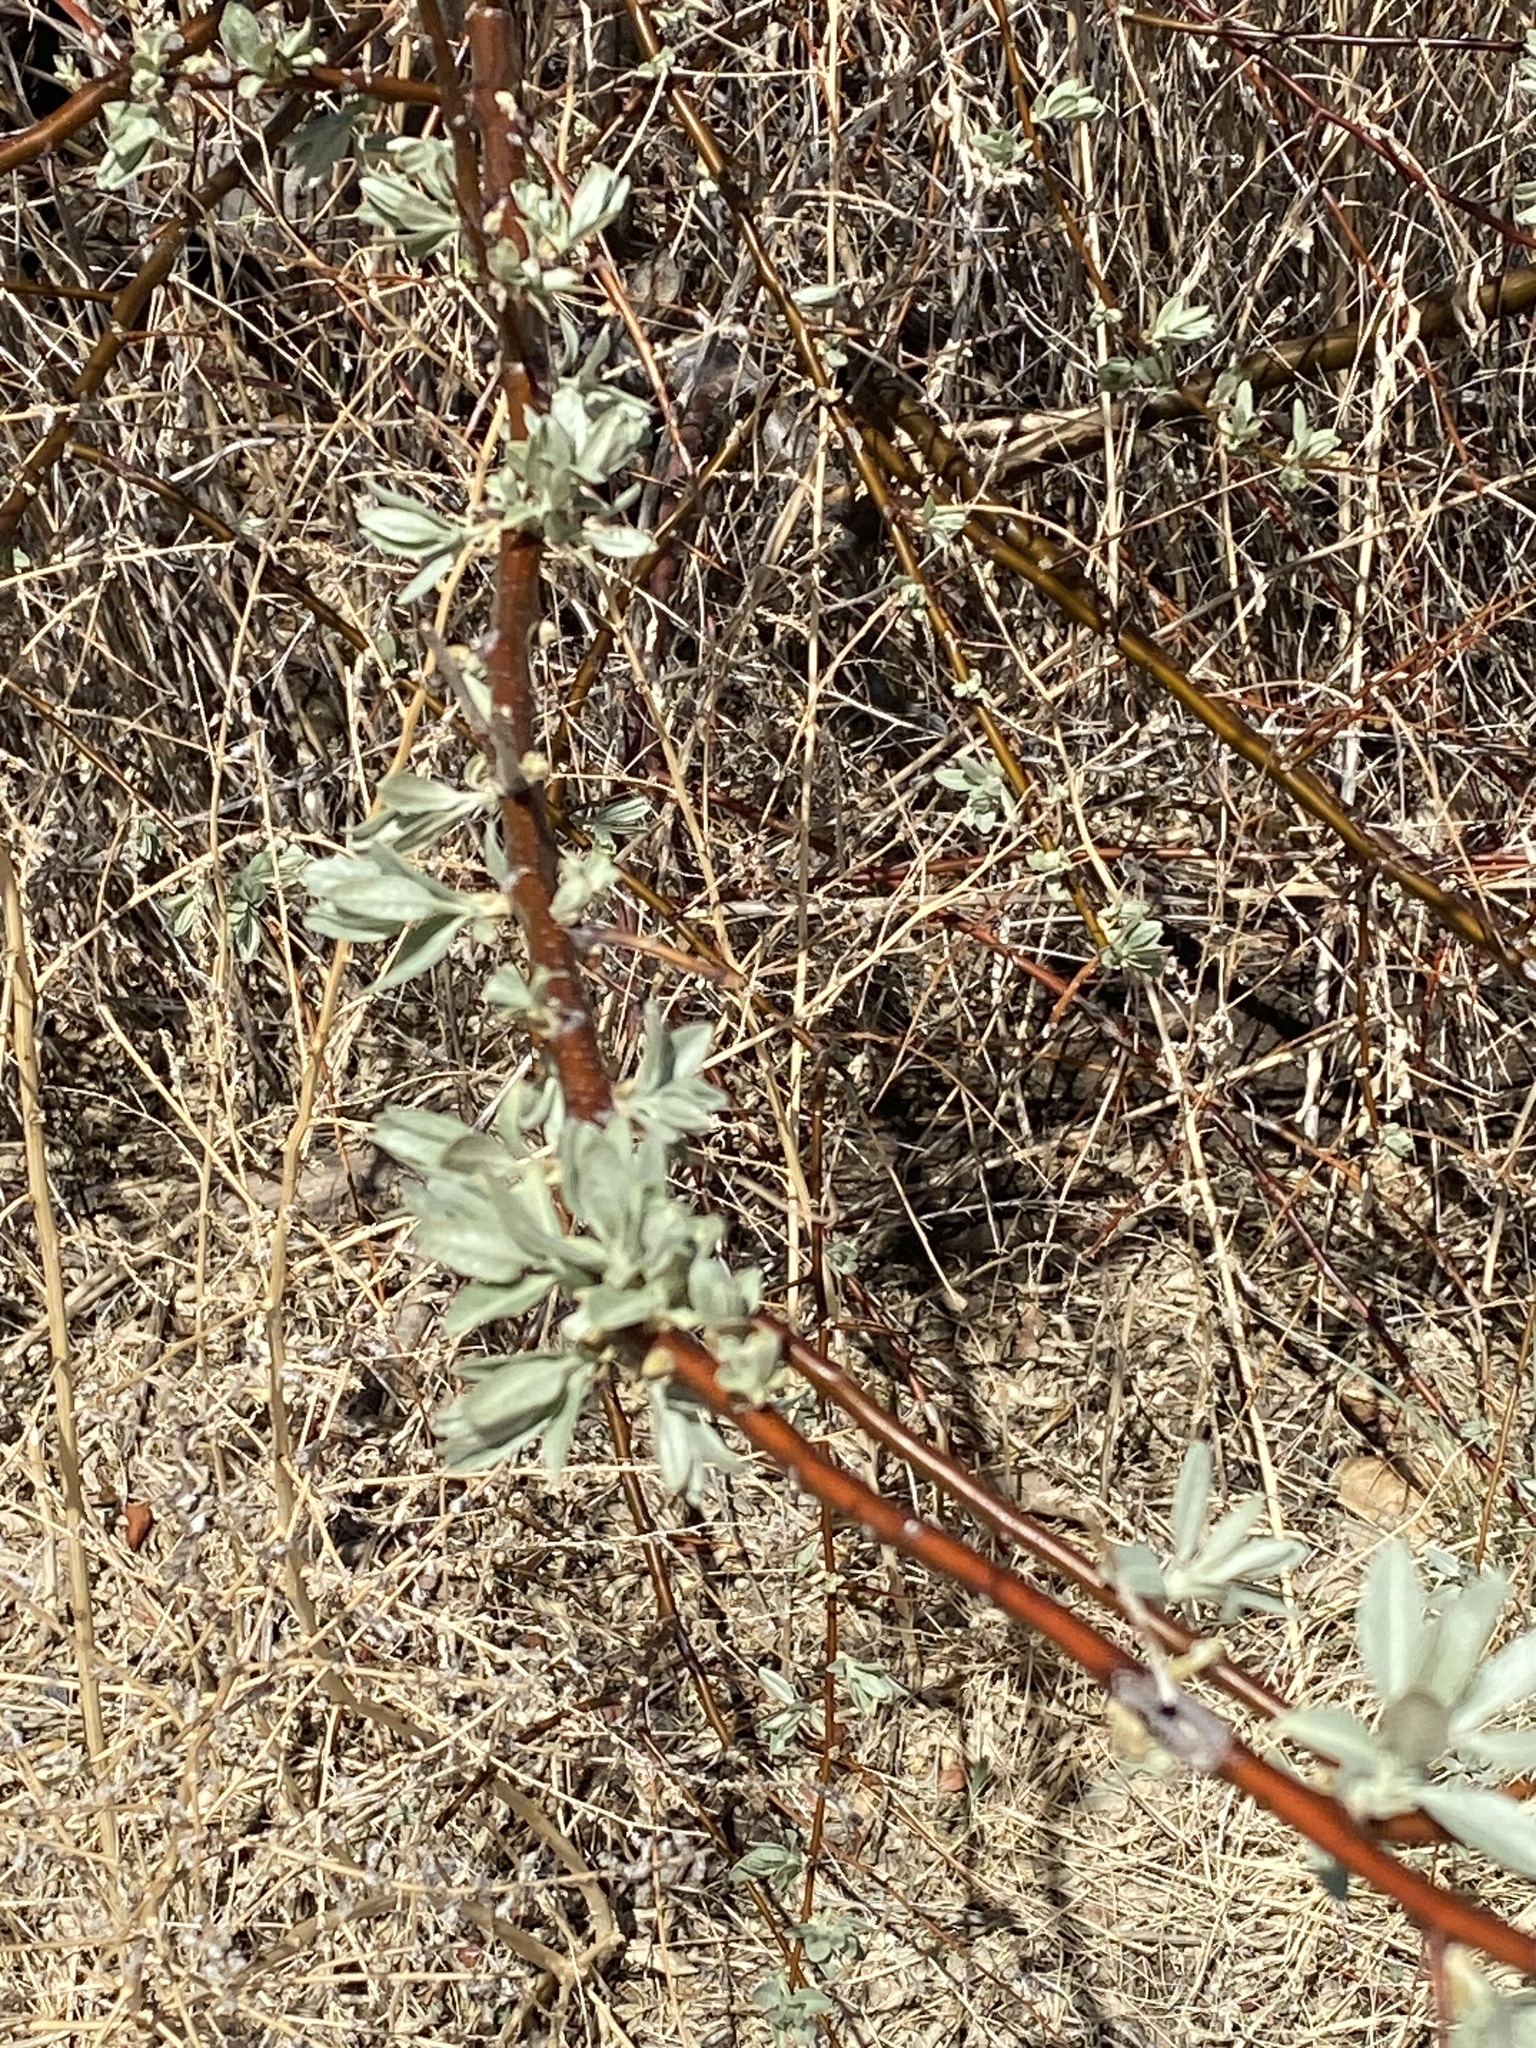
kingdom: Plantae
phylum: Tracheophyta
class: Magnoliopsida
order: Rosales
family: Elaeagnaceae
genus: Elaeagnus
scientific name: Elaeagnus angustifolia
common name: Russian olive
